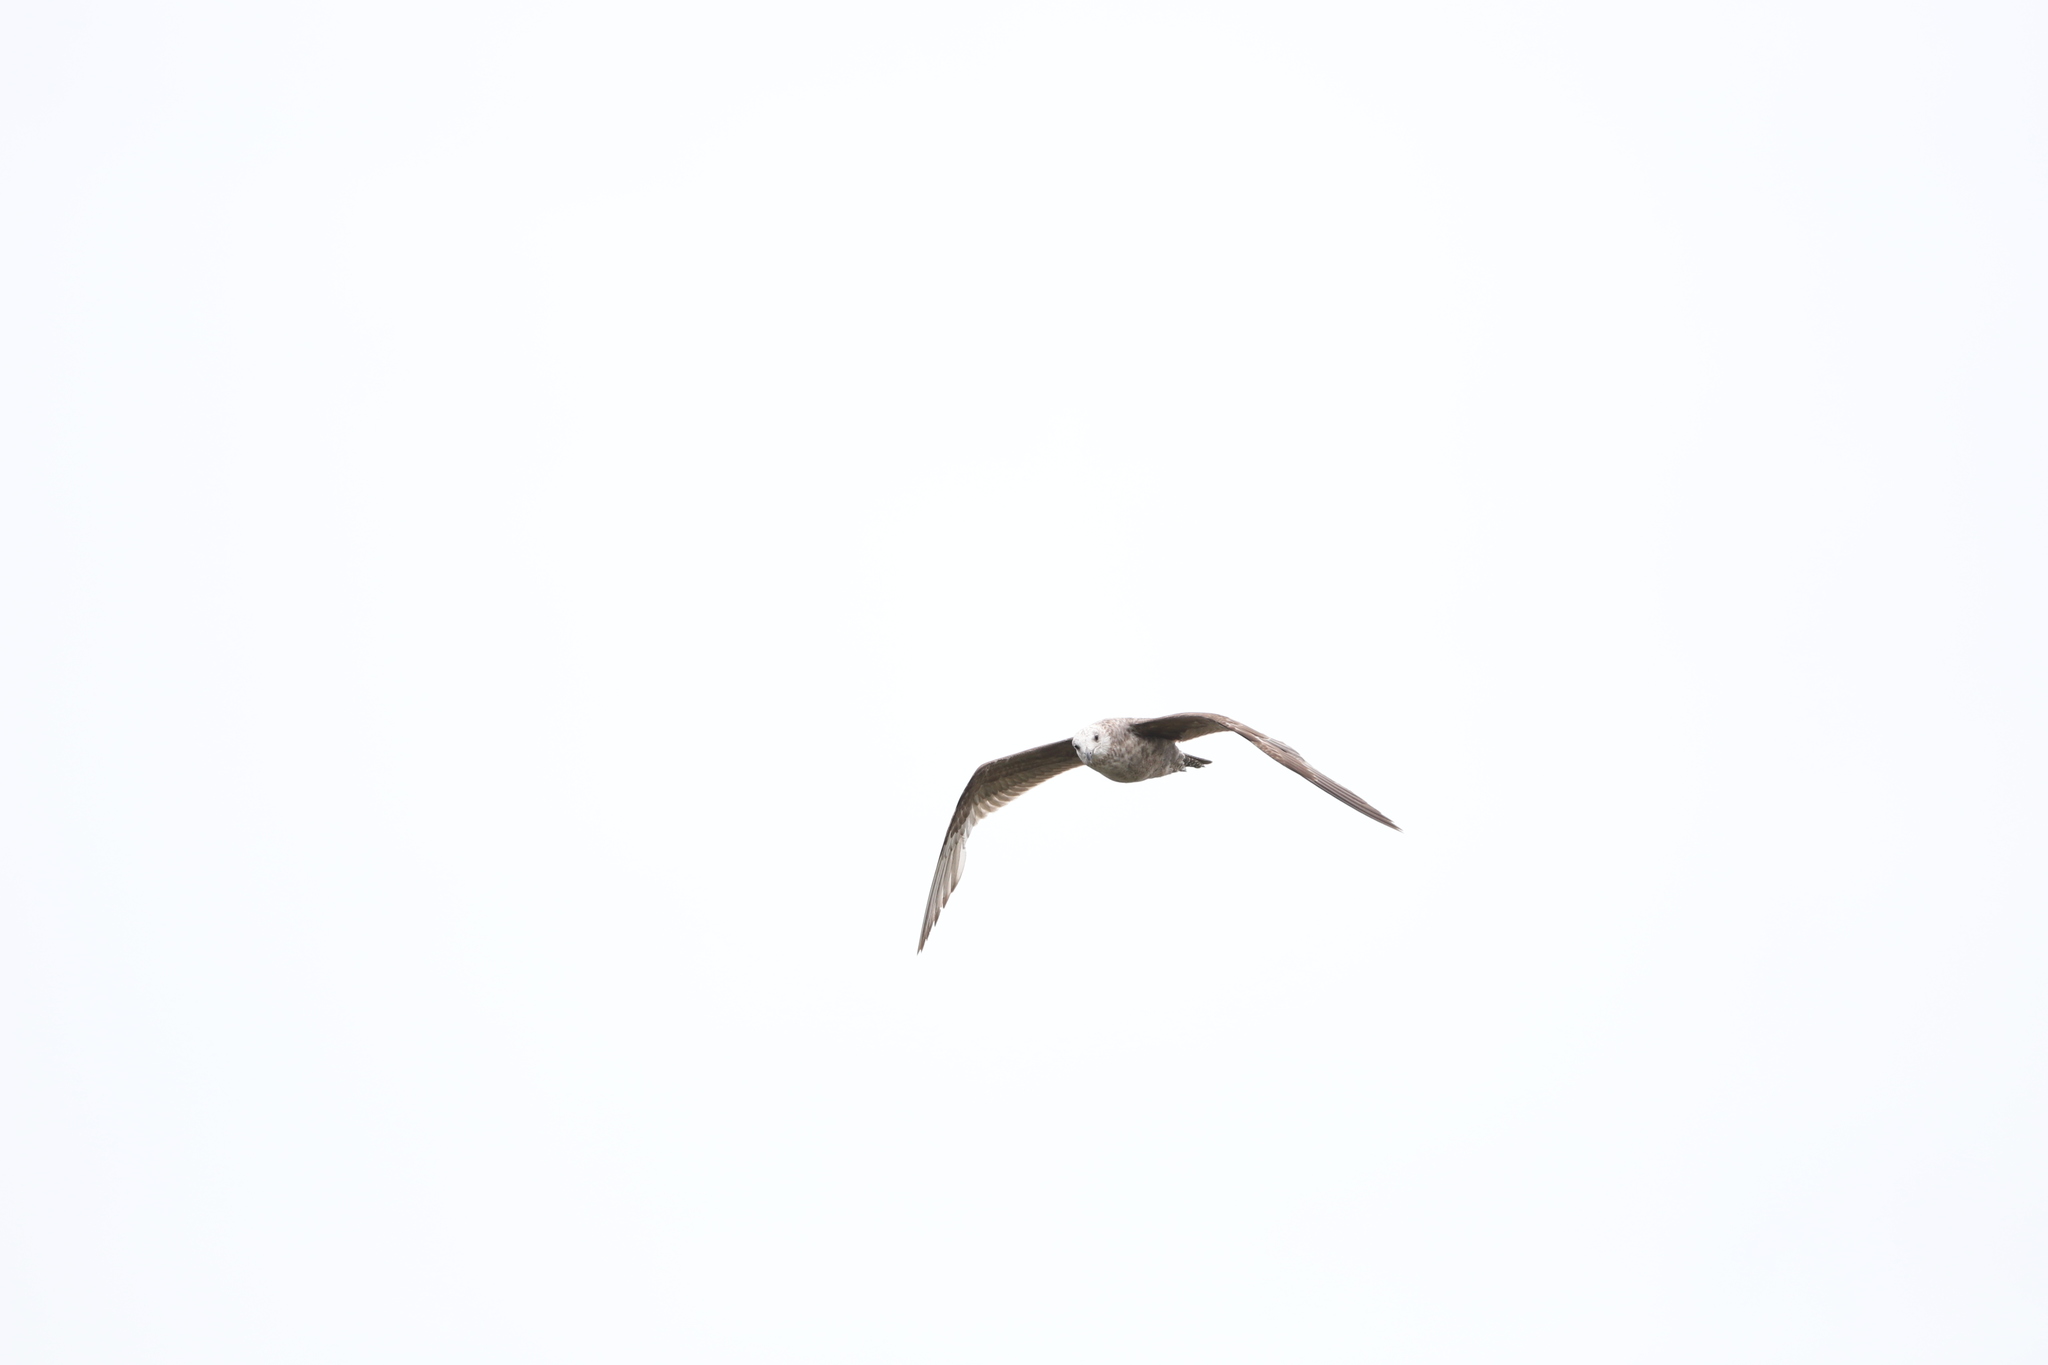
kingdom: Animalia
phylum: Chordata
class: Aves
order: Charadriiformes
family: Laridae
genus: Larus
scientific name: Larus argentatus
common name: Herring gull
